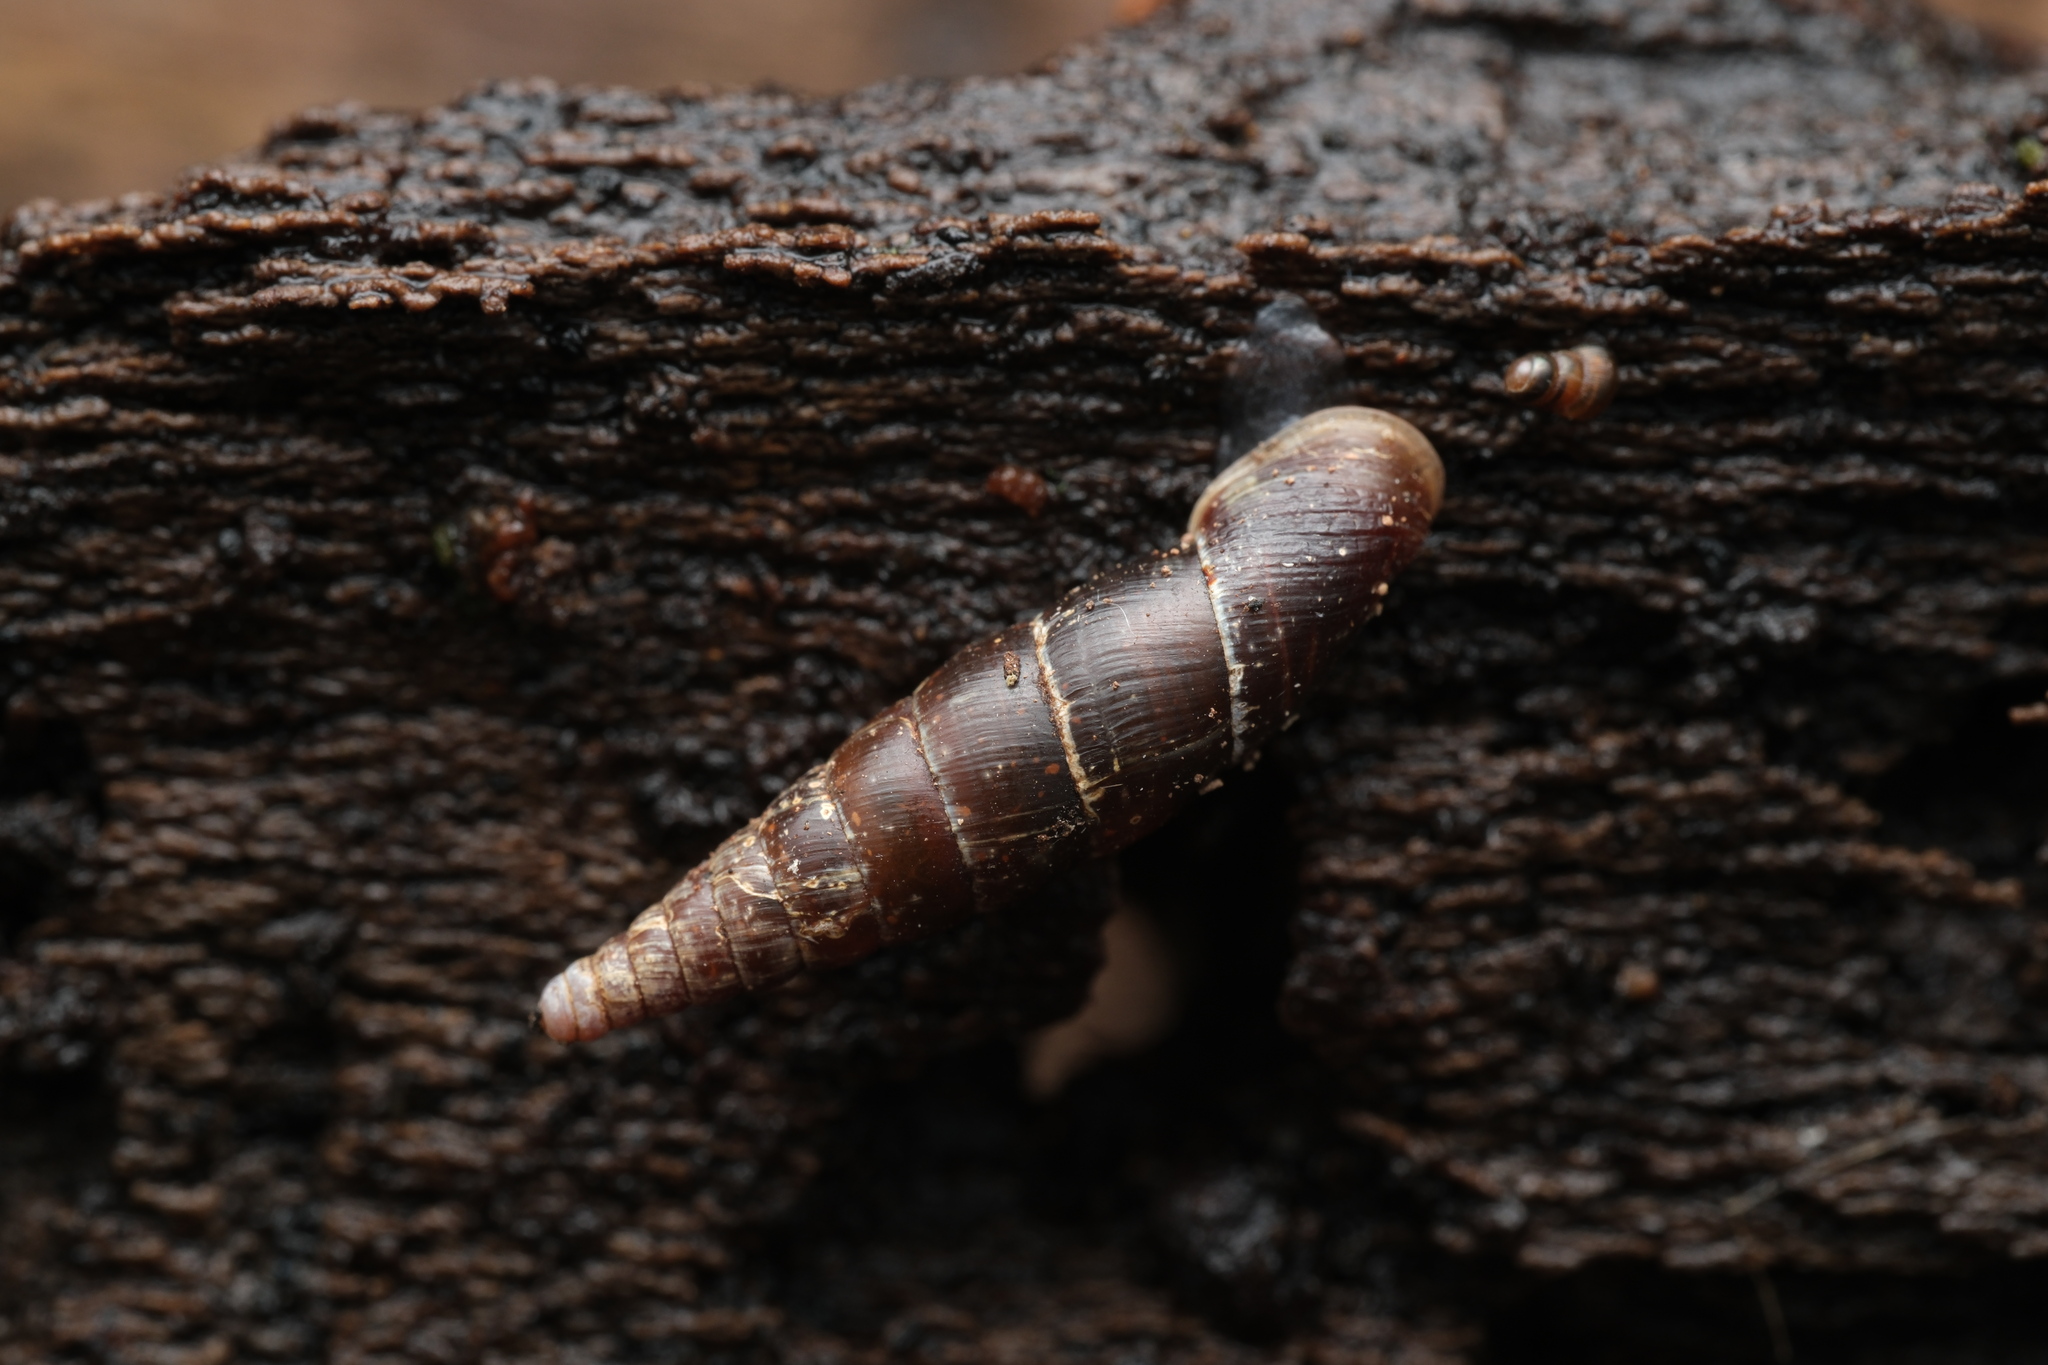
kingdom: Animalia
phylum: Mollusca
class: Gastropoda
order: Stylommatophora
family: Clausiliidae
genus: Cochlodina
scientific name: Cochlodina laminata
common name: Plaited door snail
